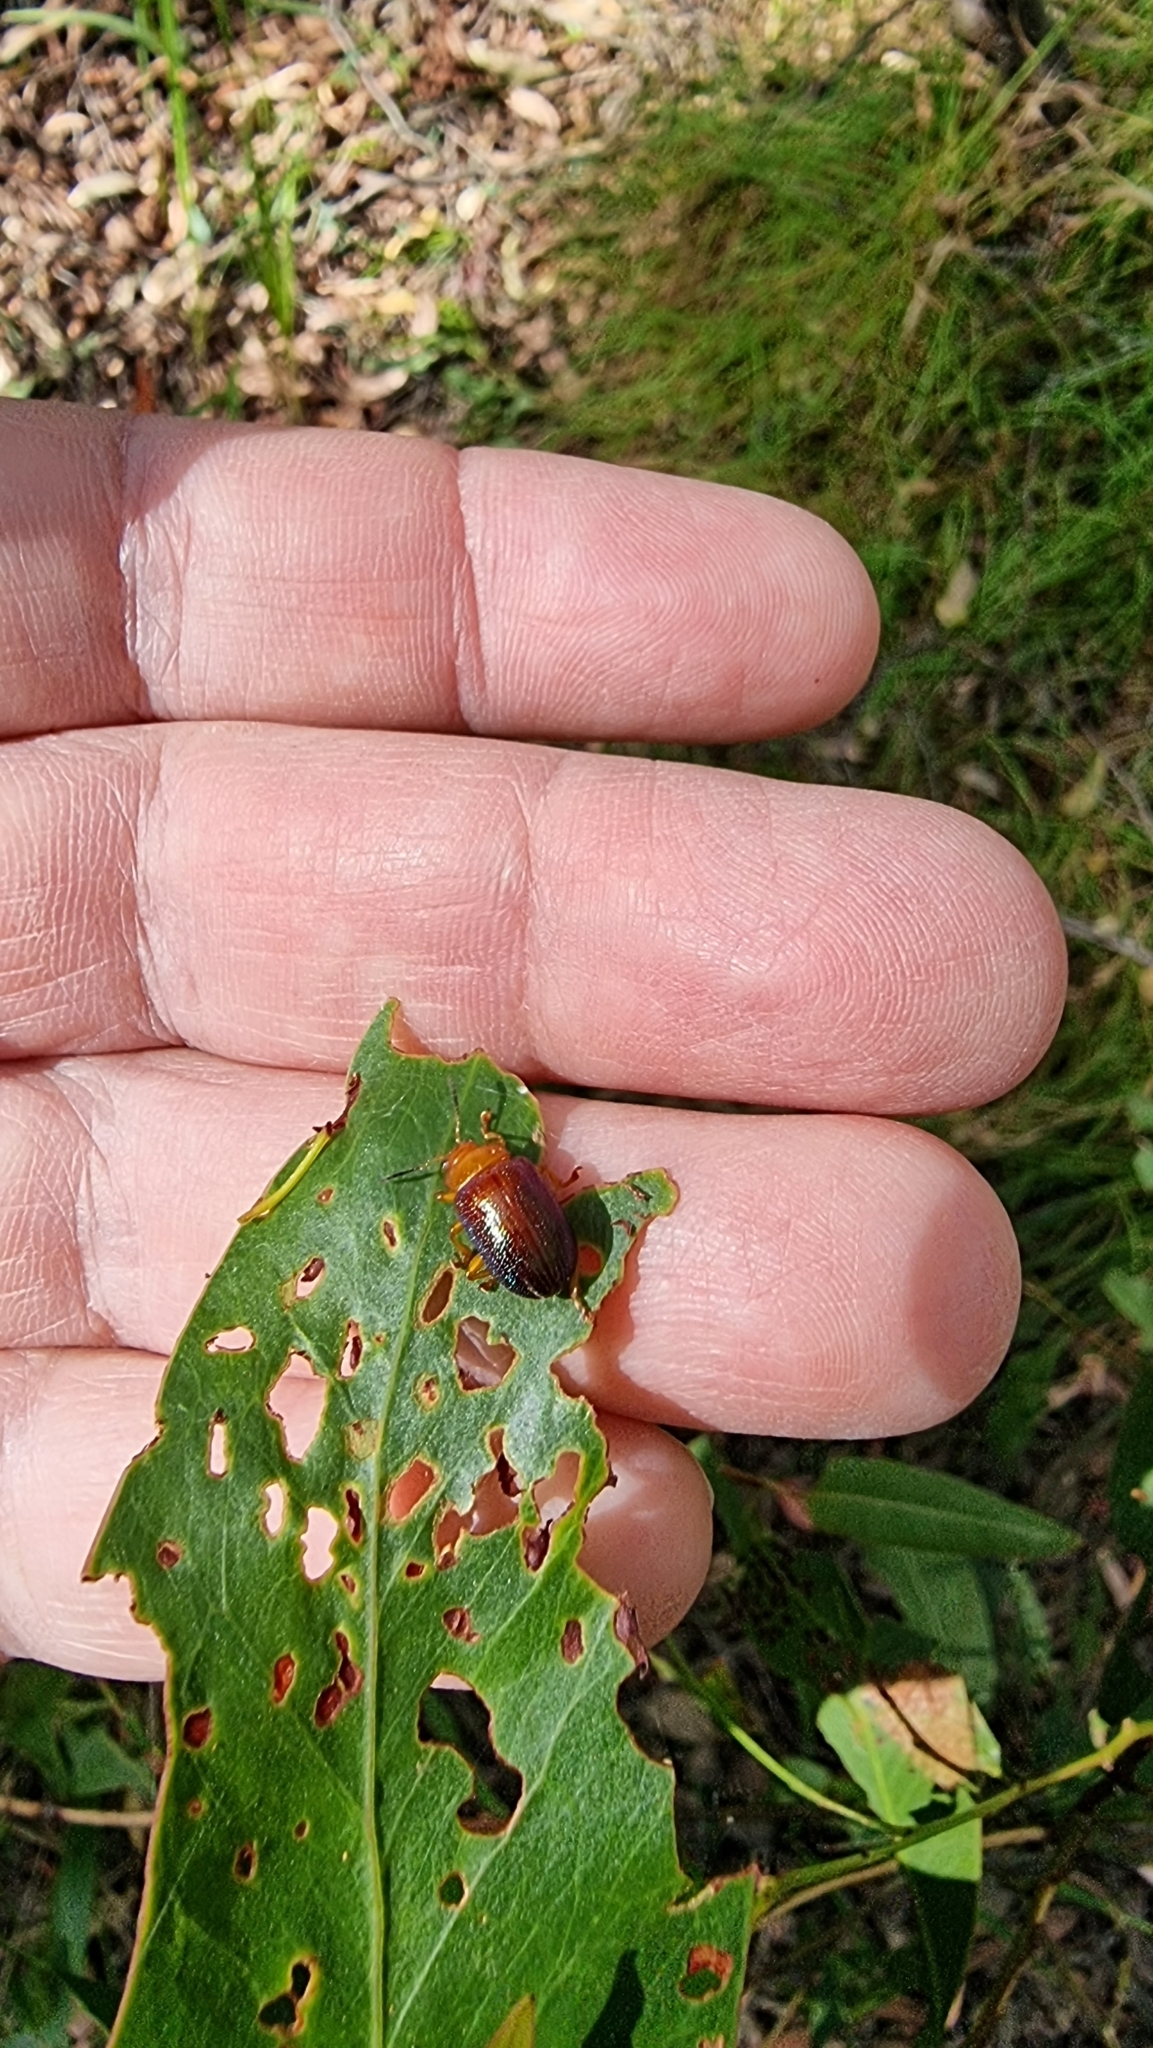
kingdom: Animalia
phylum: Arthropoda
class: Insecta
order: Coleoptera
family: Chrysomelidae
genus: Calomela
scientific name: Calomela
